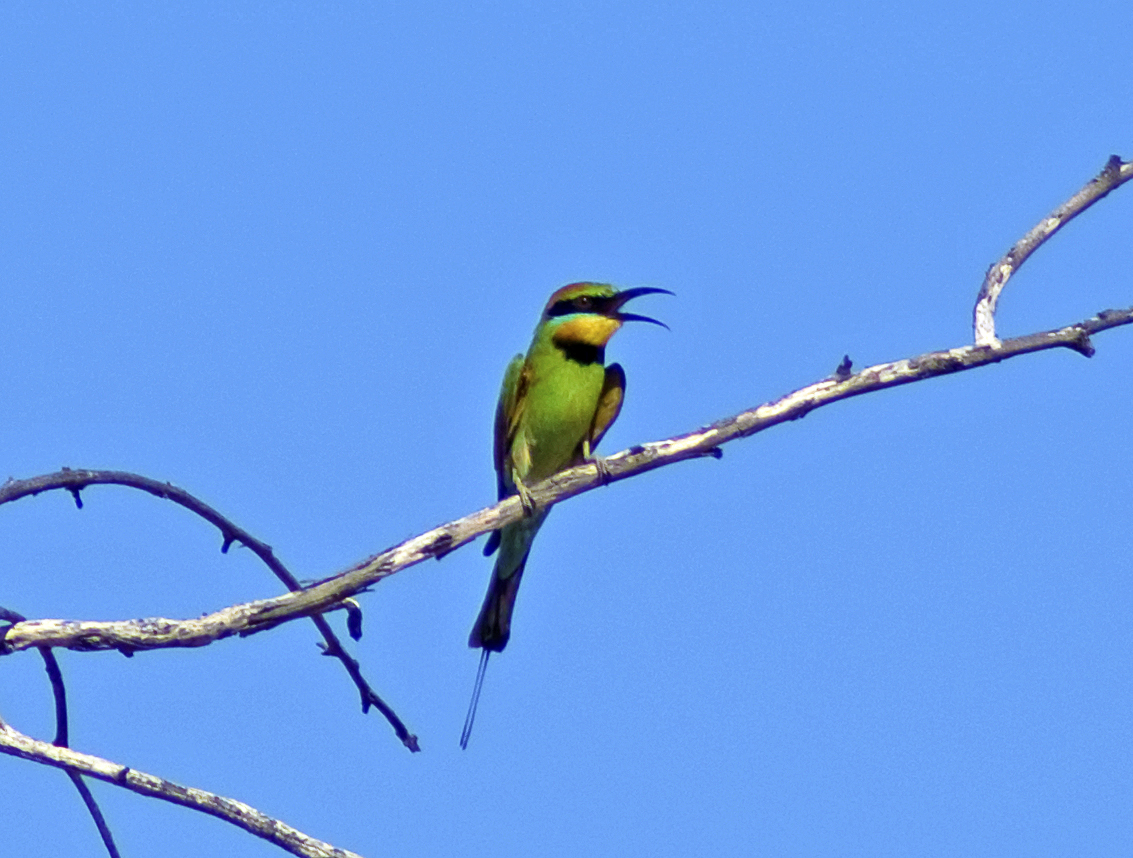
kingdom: Animalia
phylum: Chordata
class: Aves
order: Coraciiformes
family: Meropidae
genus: Merops
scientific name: Merops ornatus
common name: Rainbow bee-eater
